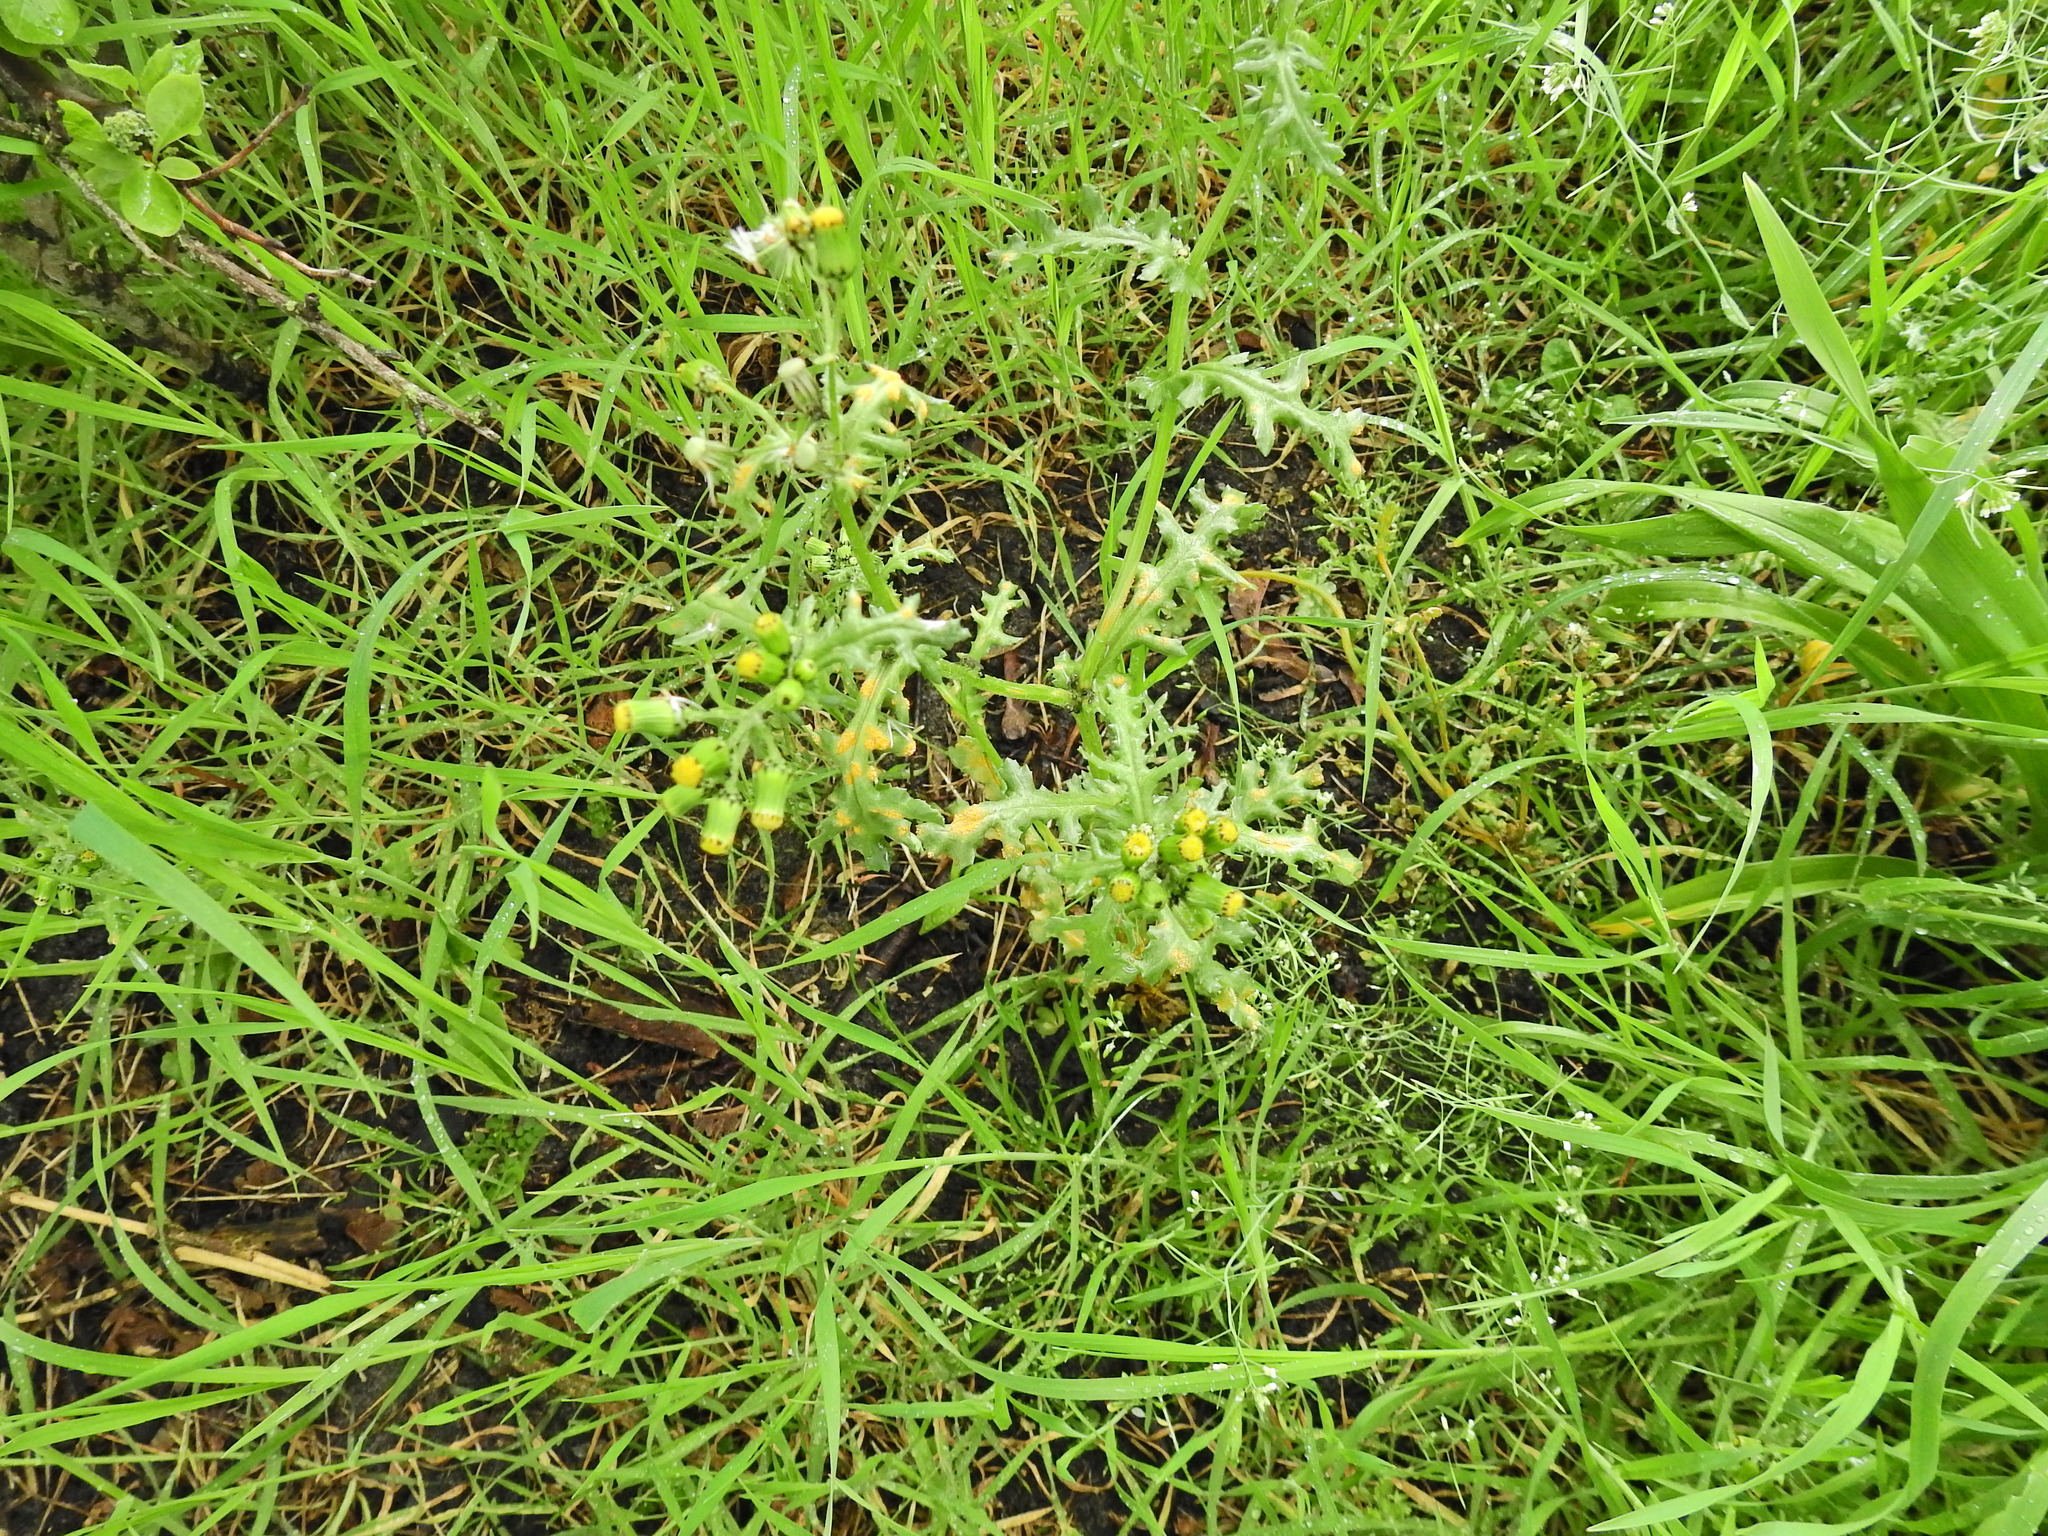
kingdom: Plantae
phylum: Tracheophyta
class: Magnoliopsida
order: Asterales
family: Asteraceae
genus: Senecio
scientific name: Senecio vulgaris
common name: Old-man-in-the-spring
